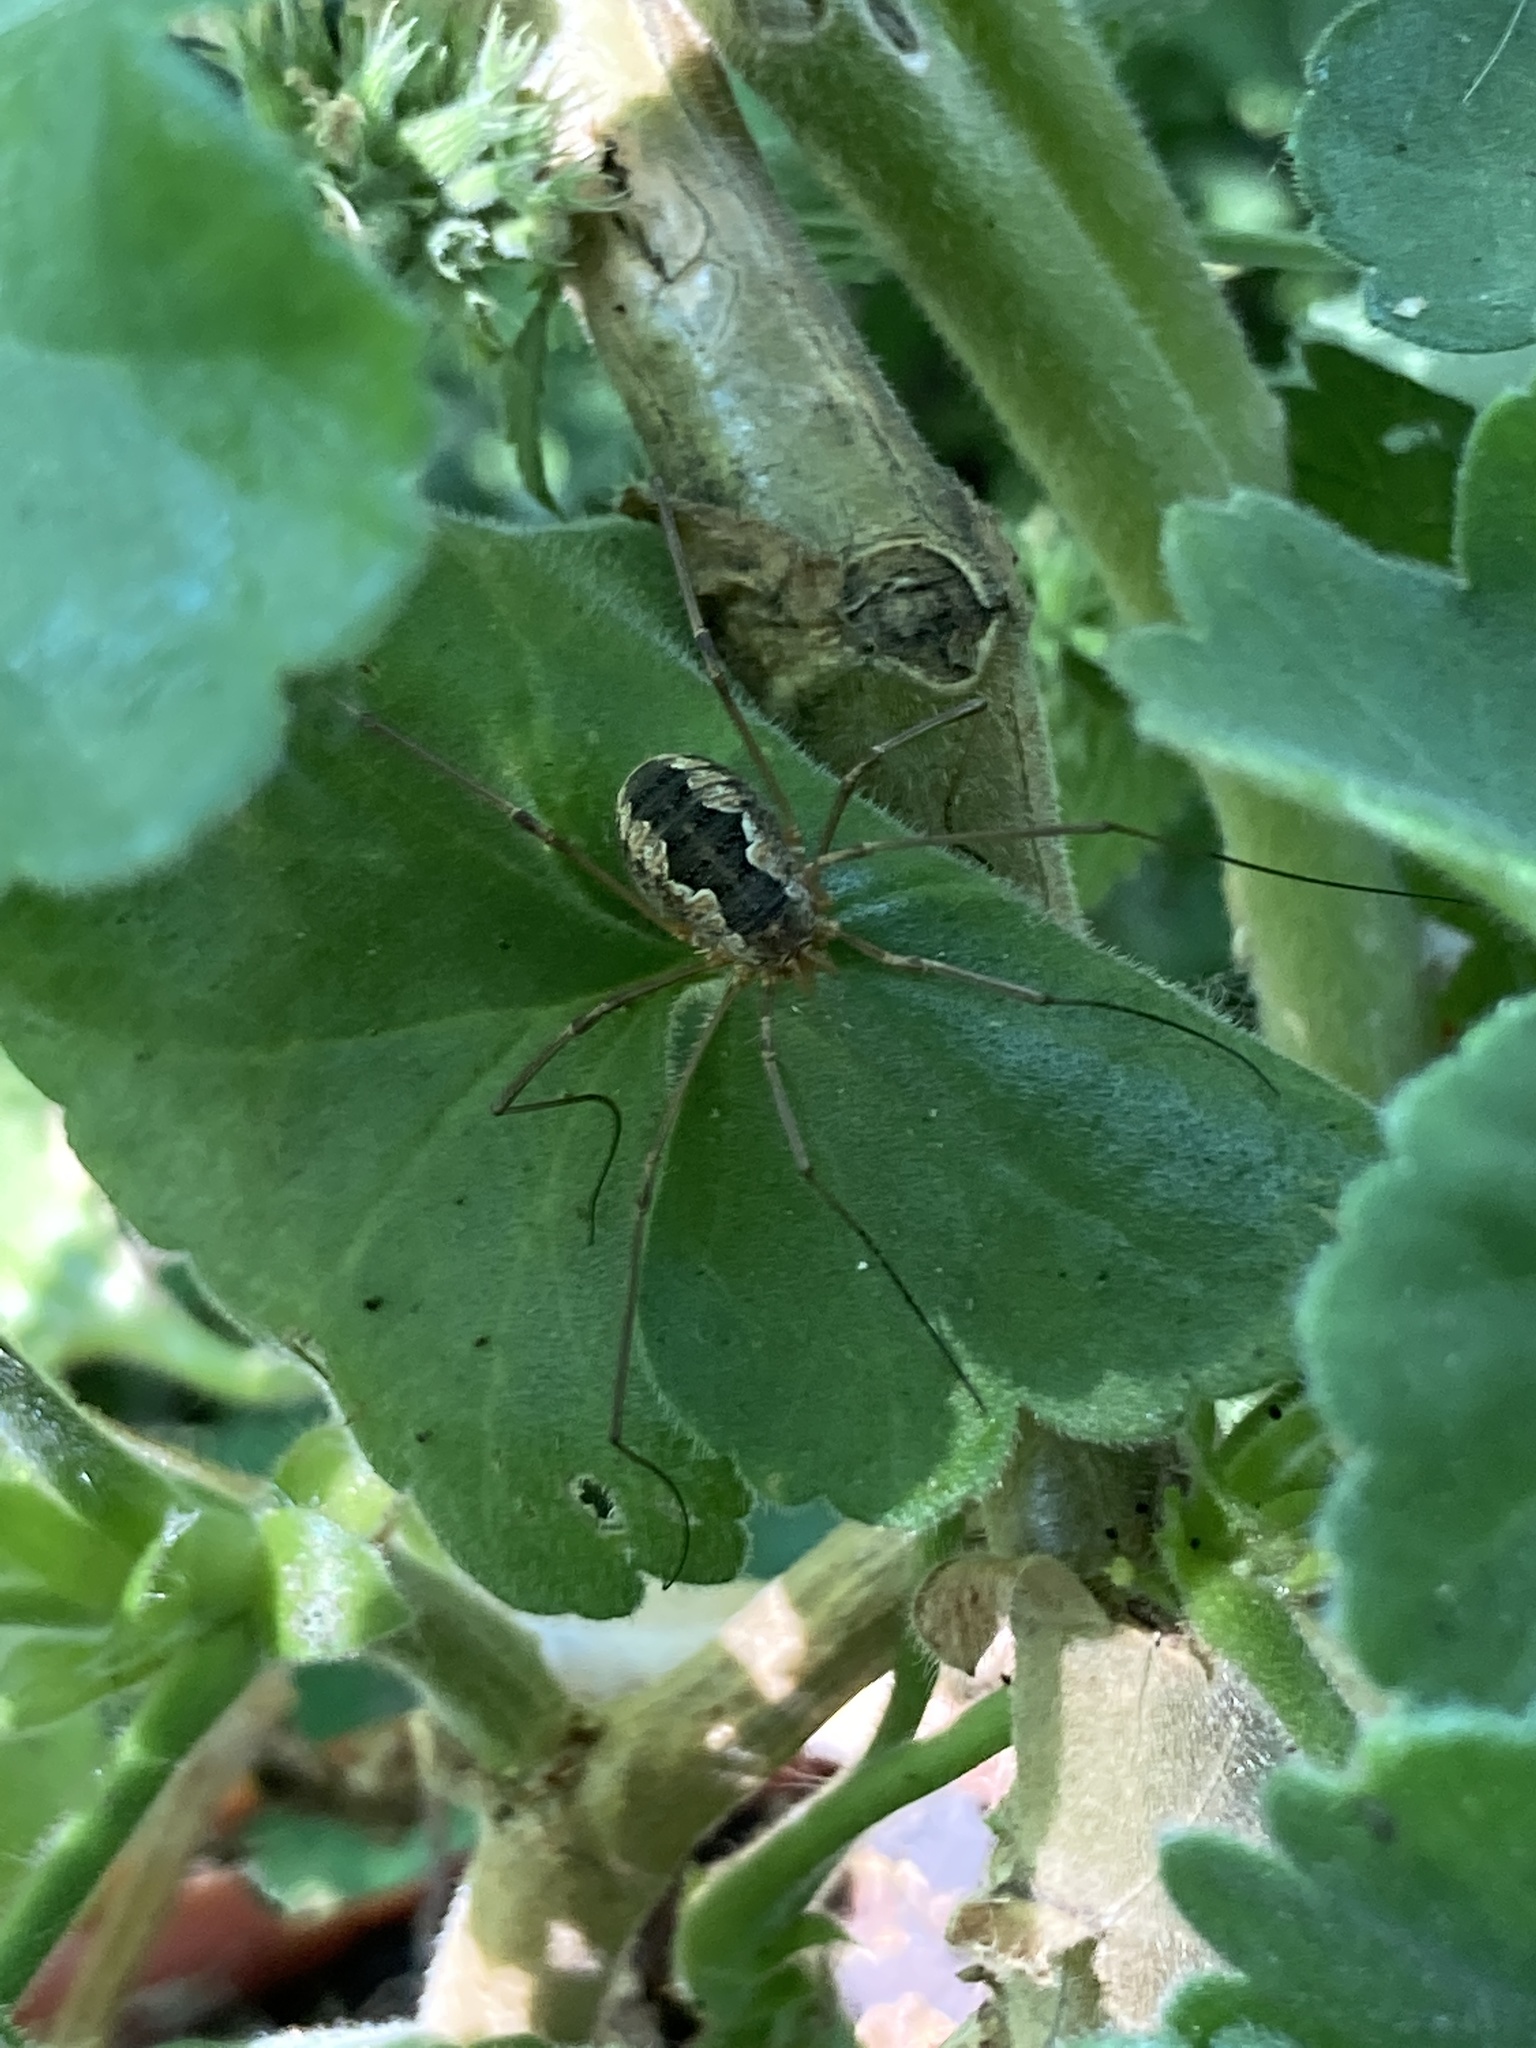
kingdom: Animalia
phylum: Arthropoda
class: Arachnida
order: Opiliones
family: Phalangiidae
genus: Phalangium
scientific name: Phalangium opilio
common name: Daddy longleg
